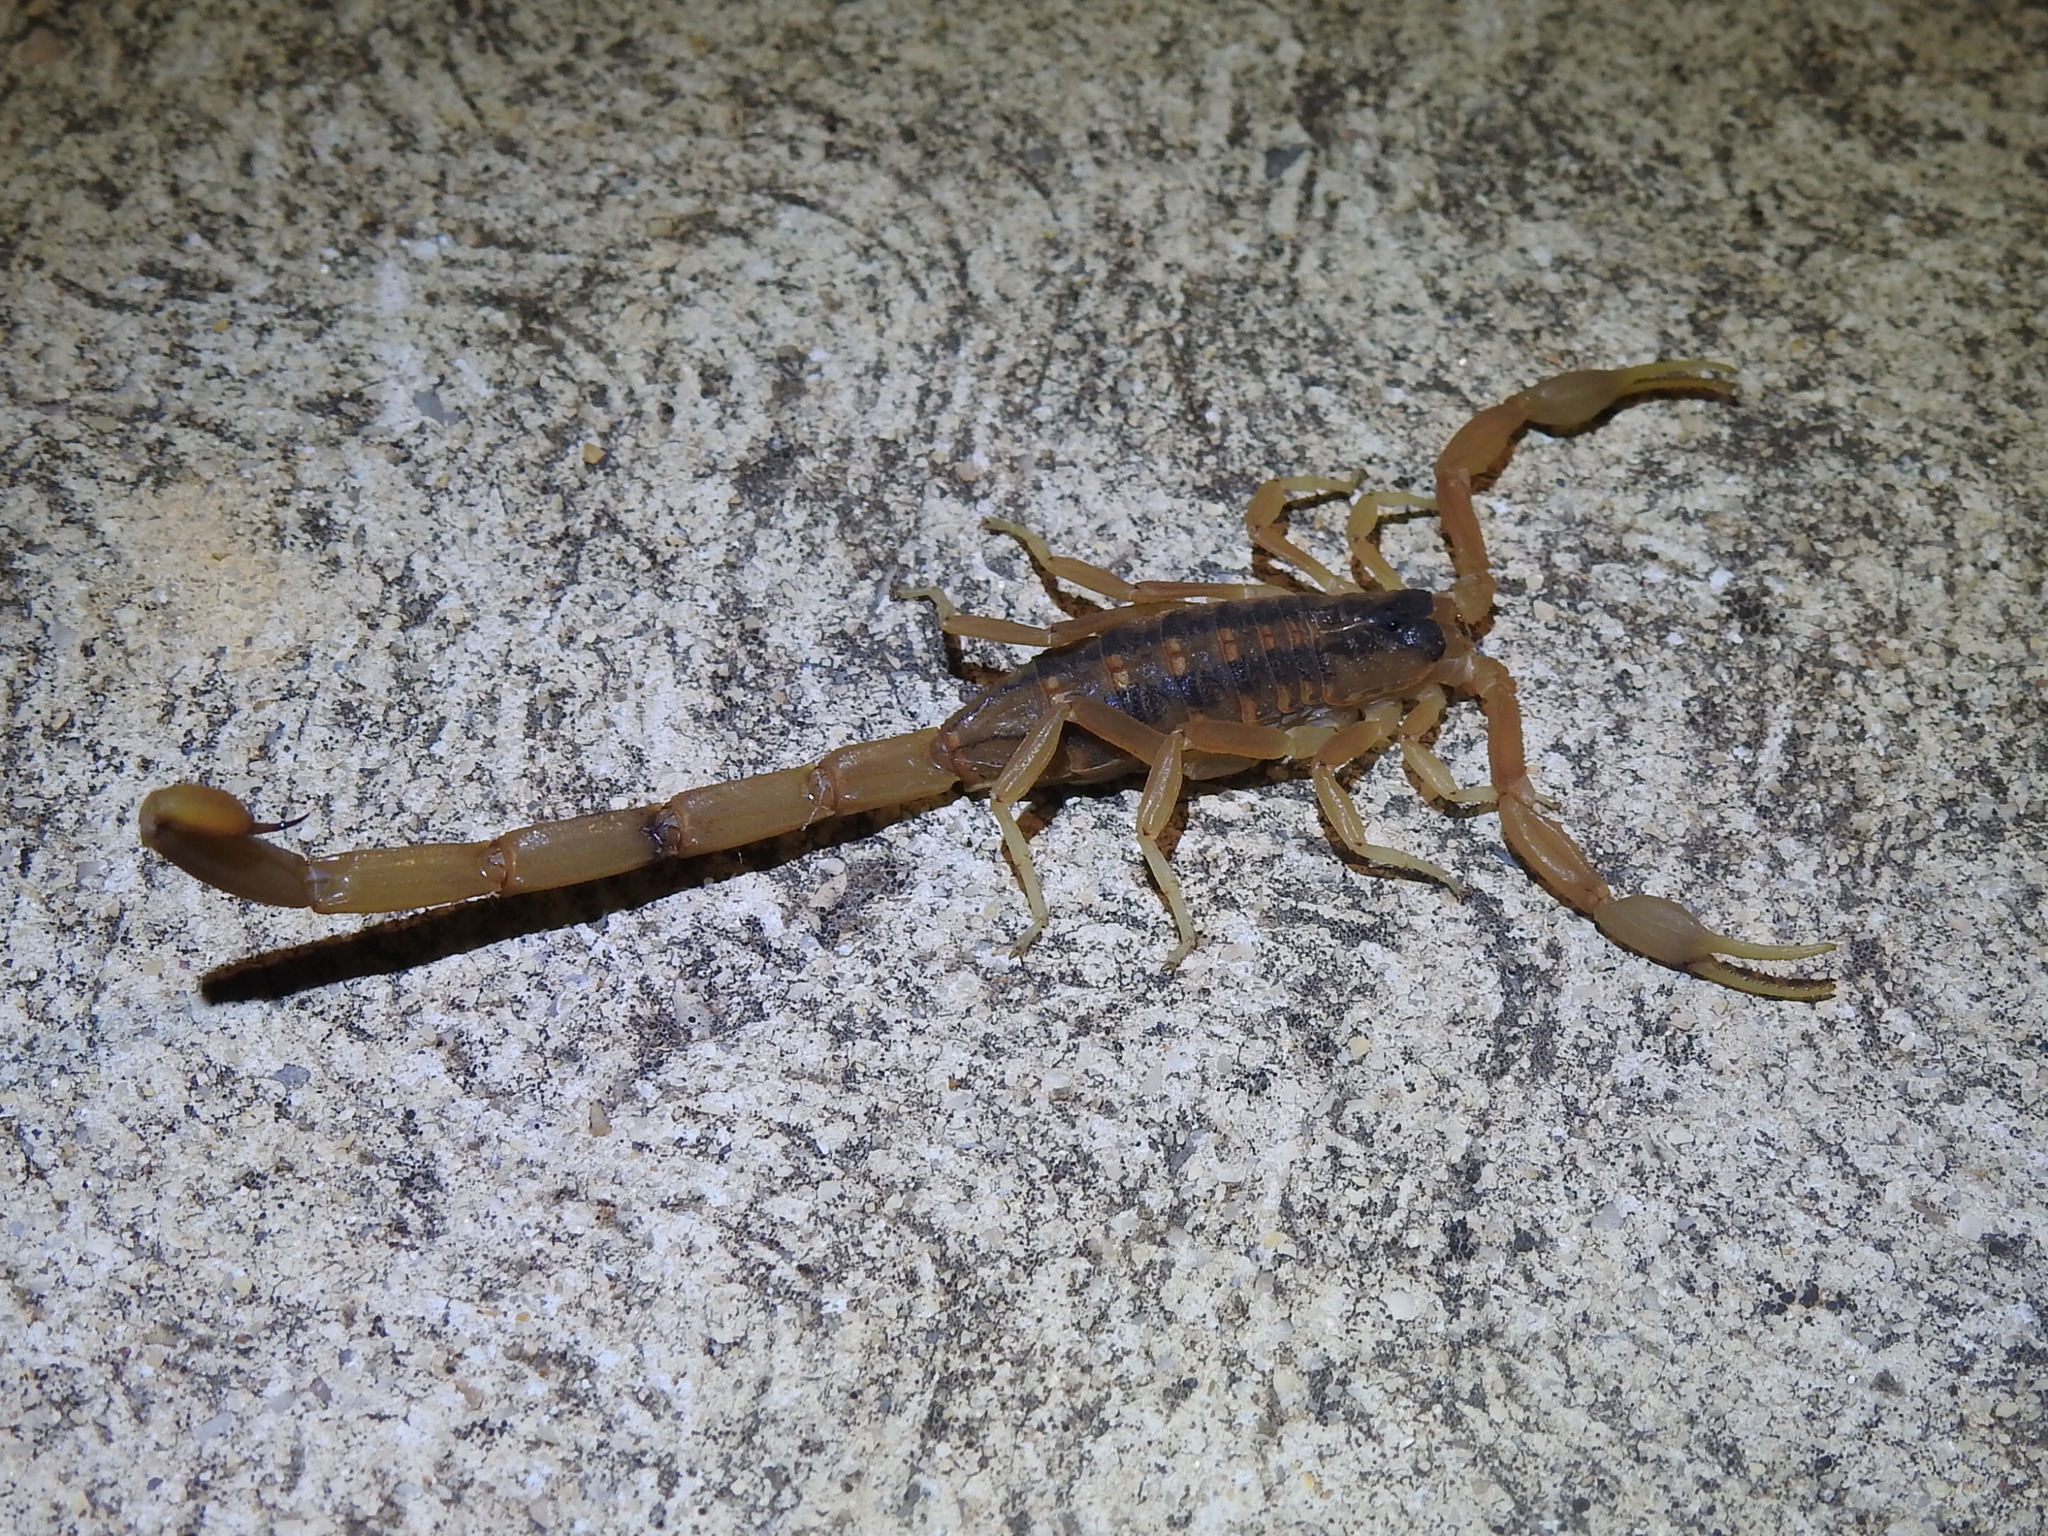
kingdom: Animalia
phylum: Arthropoda
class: Arachnida
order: Scorpiones
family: Buthidae
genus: Centruroides
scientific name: Centruroides vittatus
